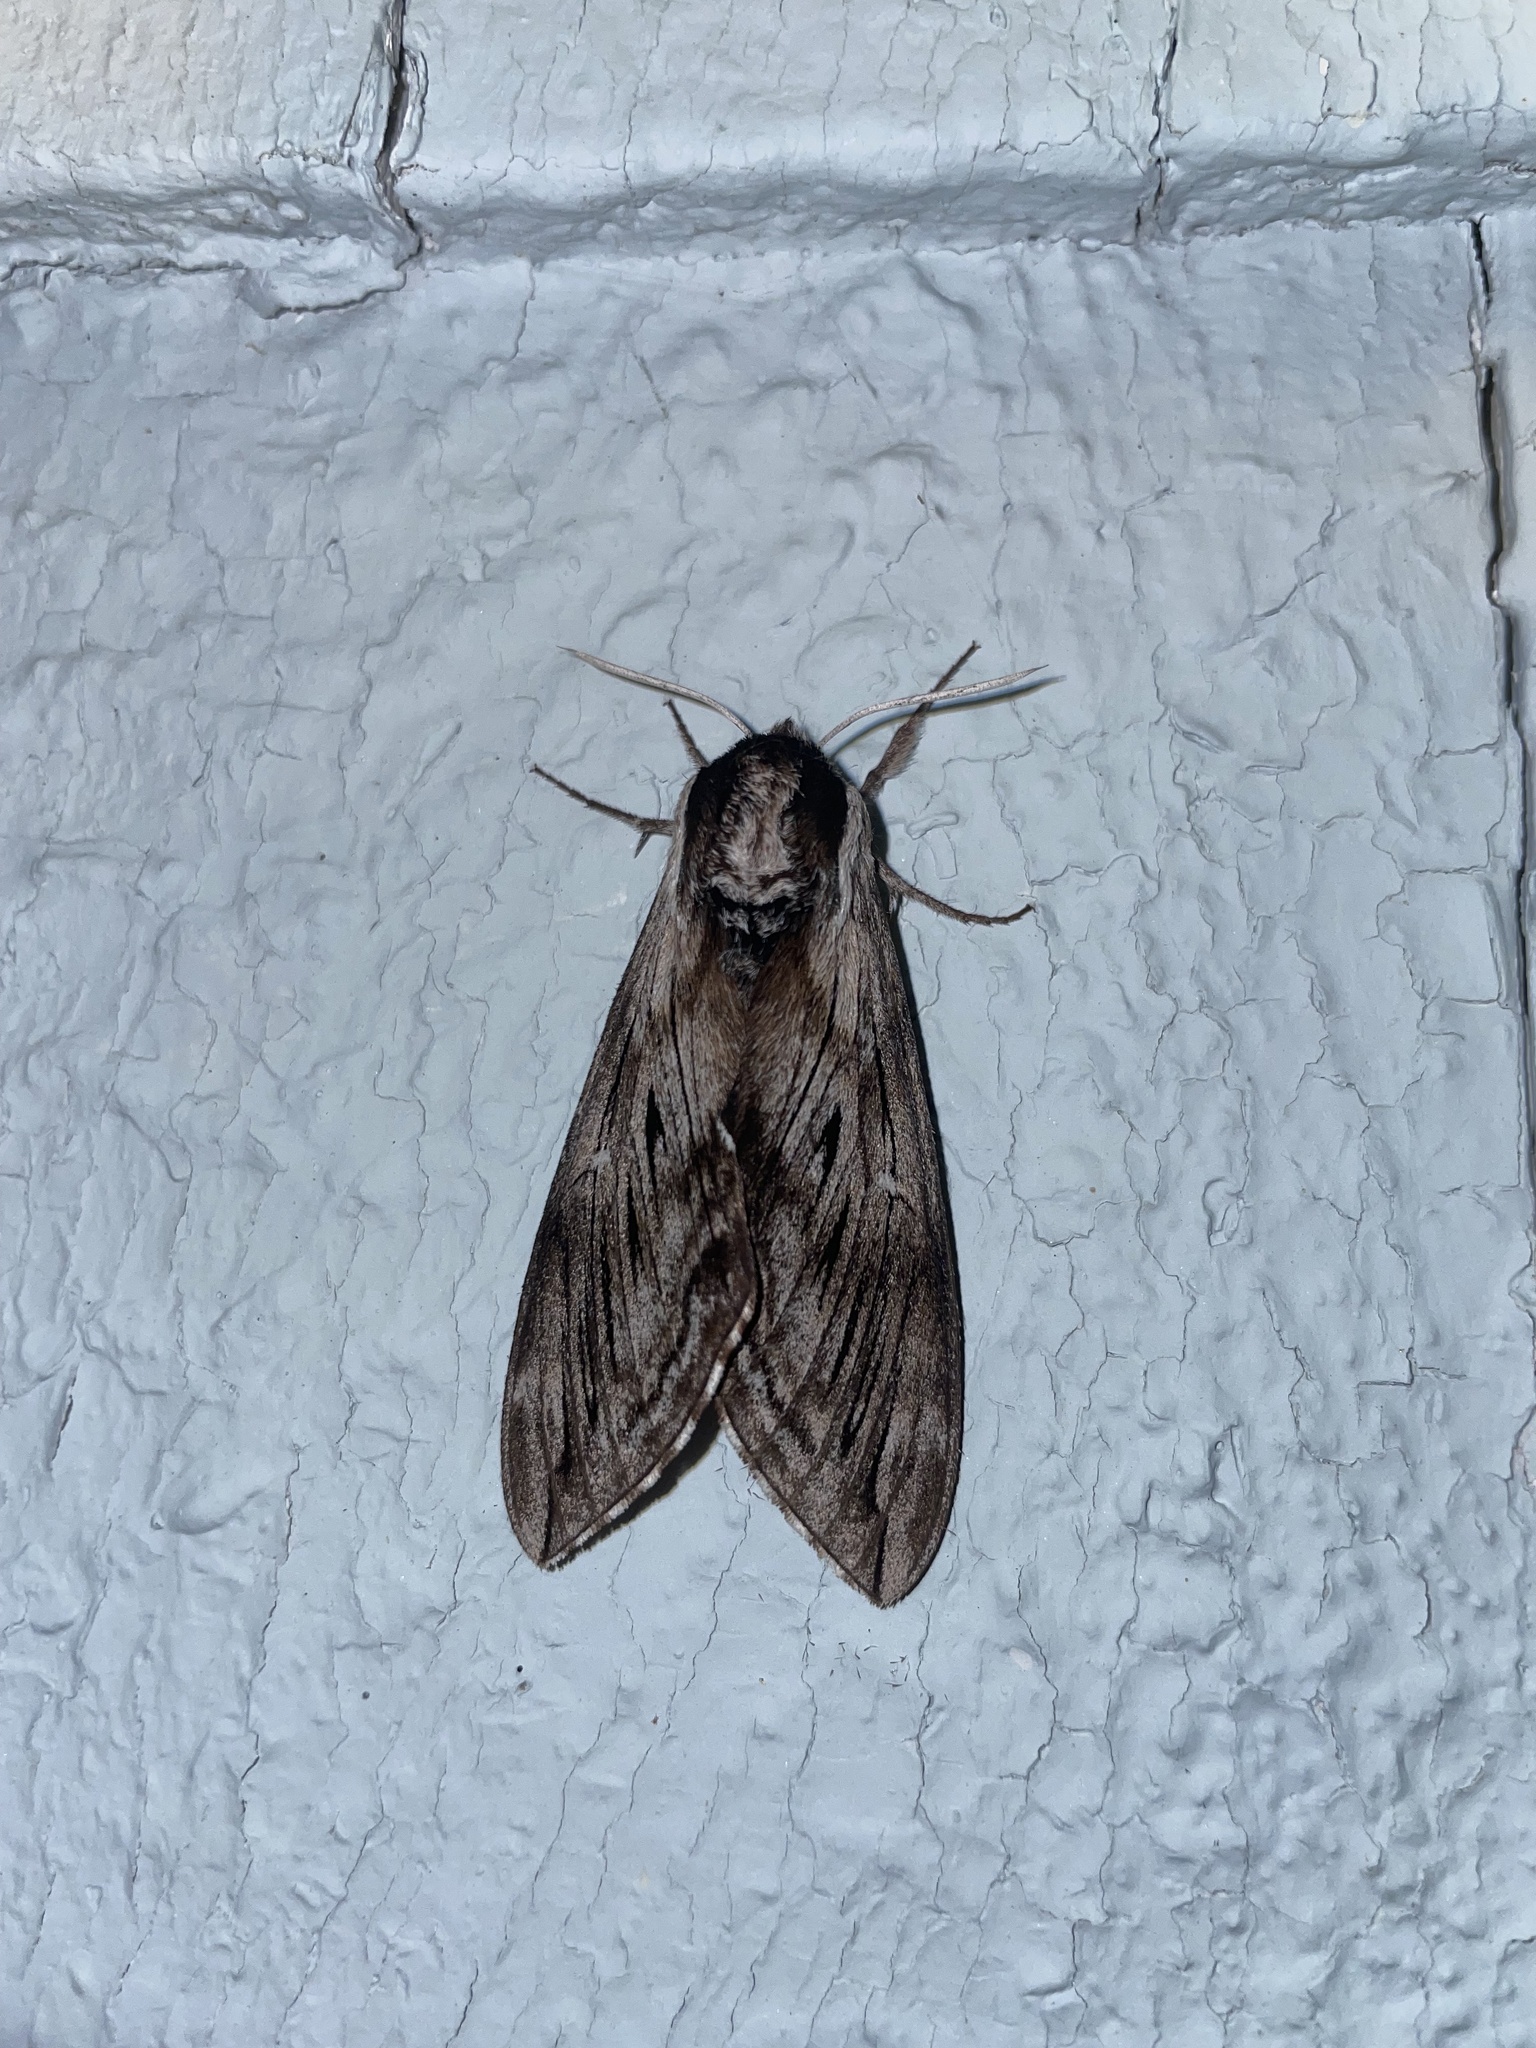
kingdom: Animalia
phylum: Arthropoda
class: Insecta
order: Lepidoptera
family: Sphingidae
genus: Sphinx
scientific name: Sphinx poecila
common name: Northern apple sphinx
